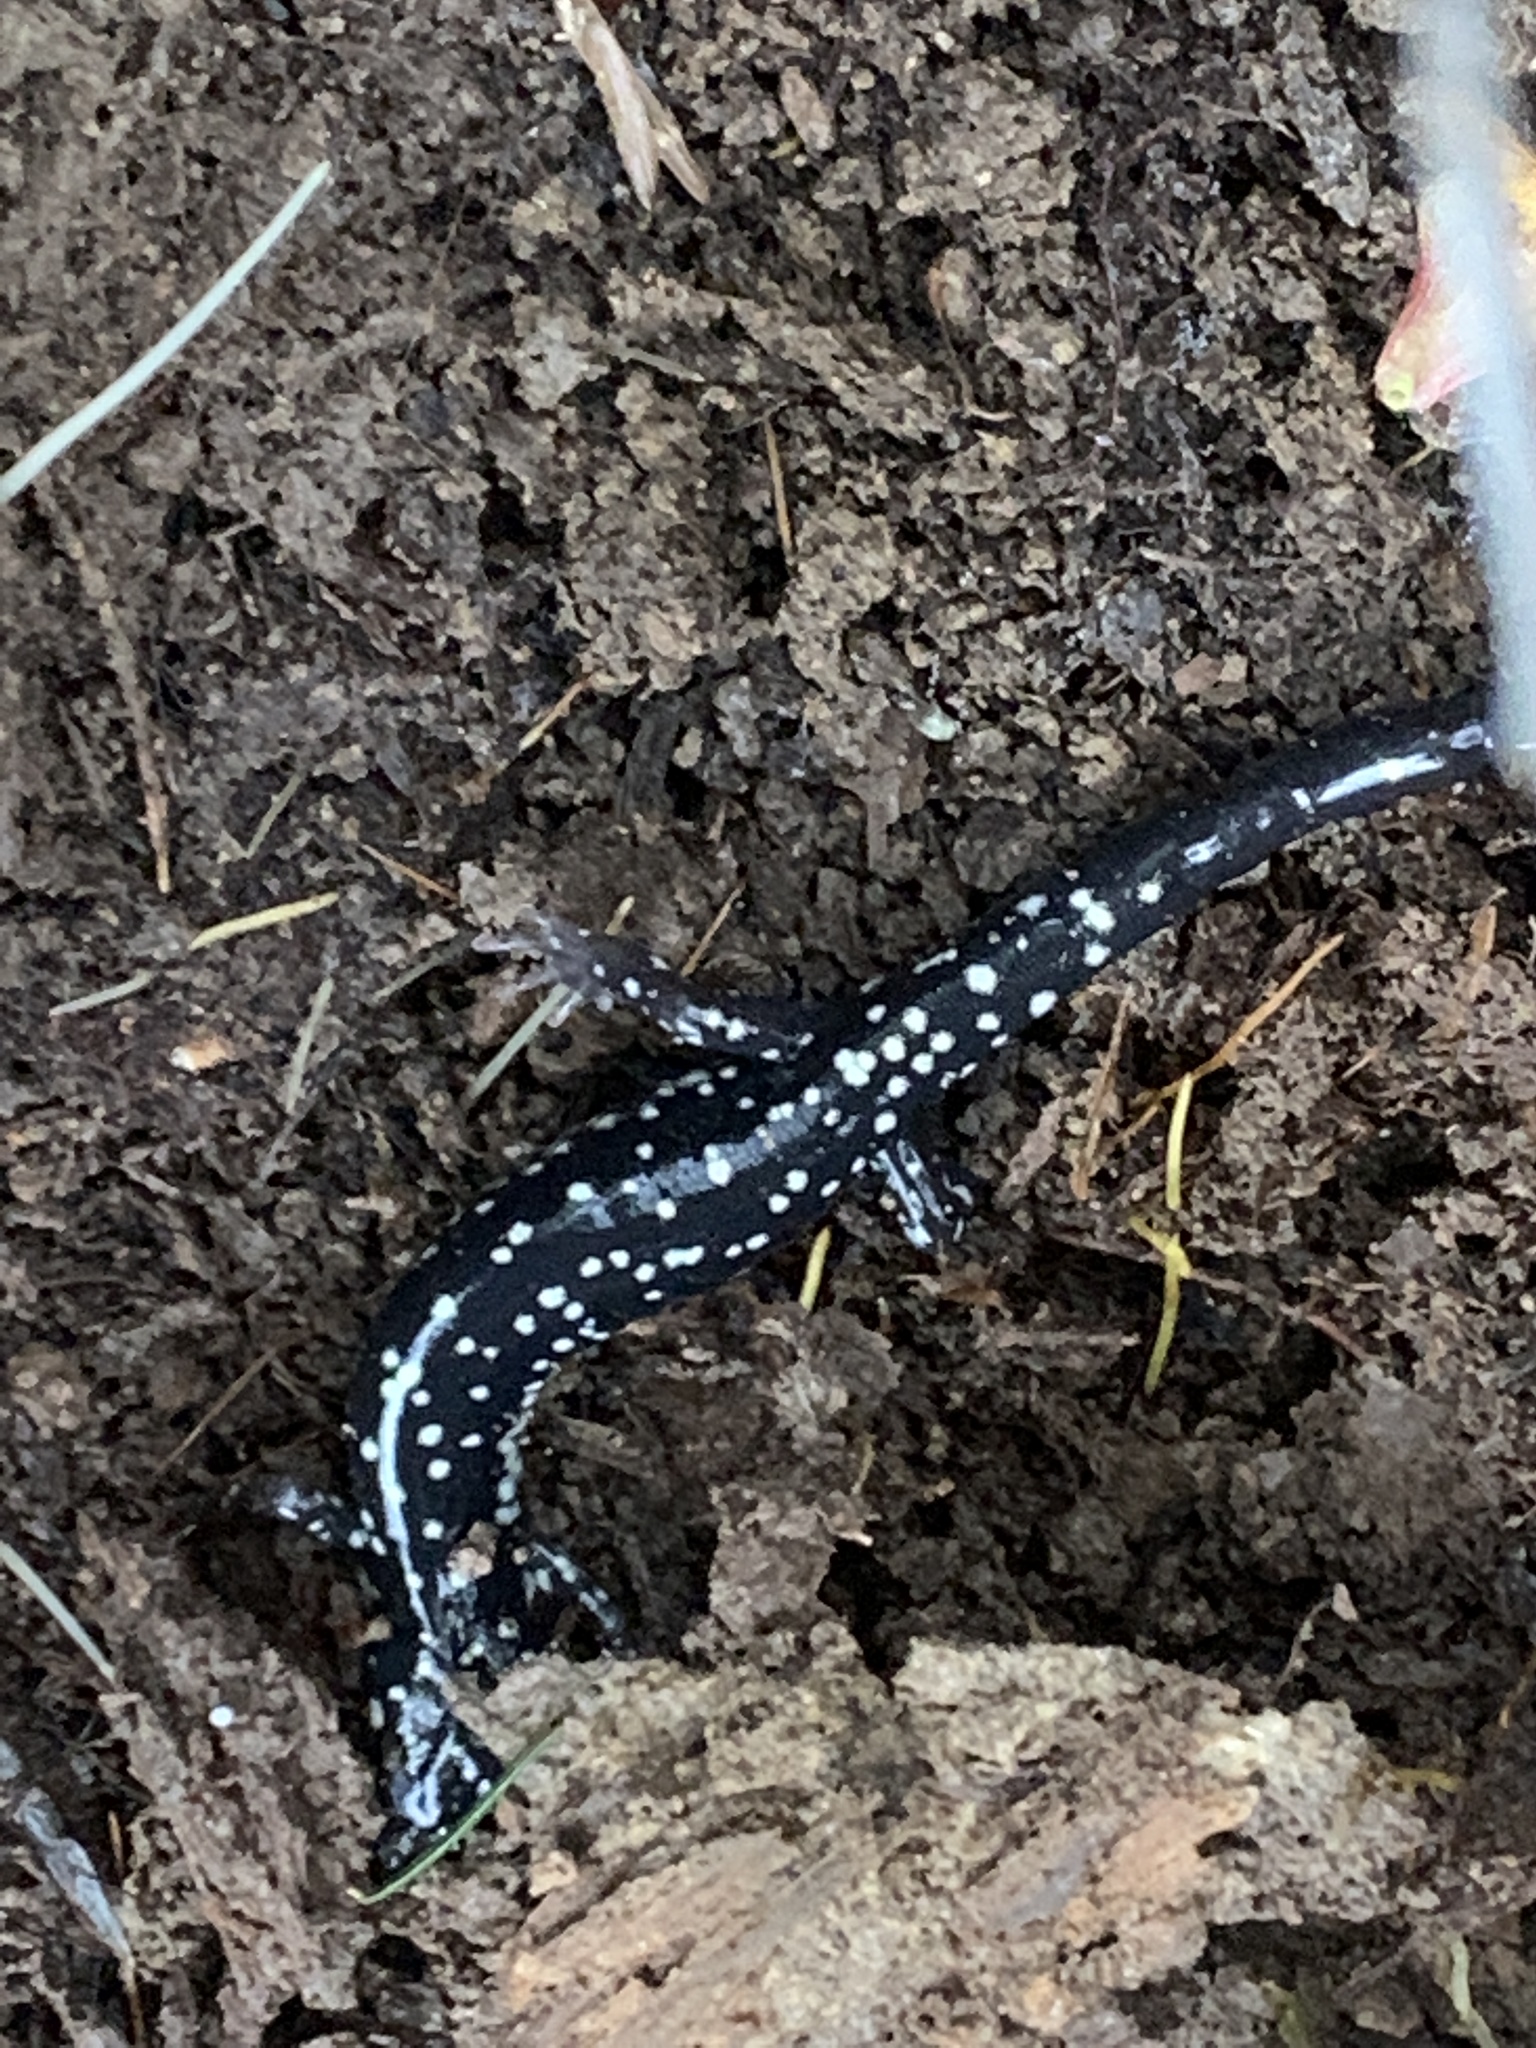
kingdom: Animalia
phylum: Chordata
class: Amphibia
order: Caudata
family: Plethodontidae
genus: Plethodon
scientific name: Plethodon glutinosus
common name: Northern slimy salamander
